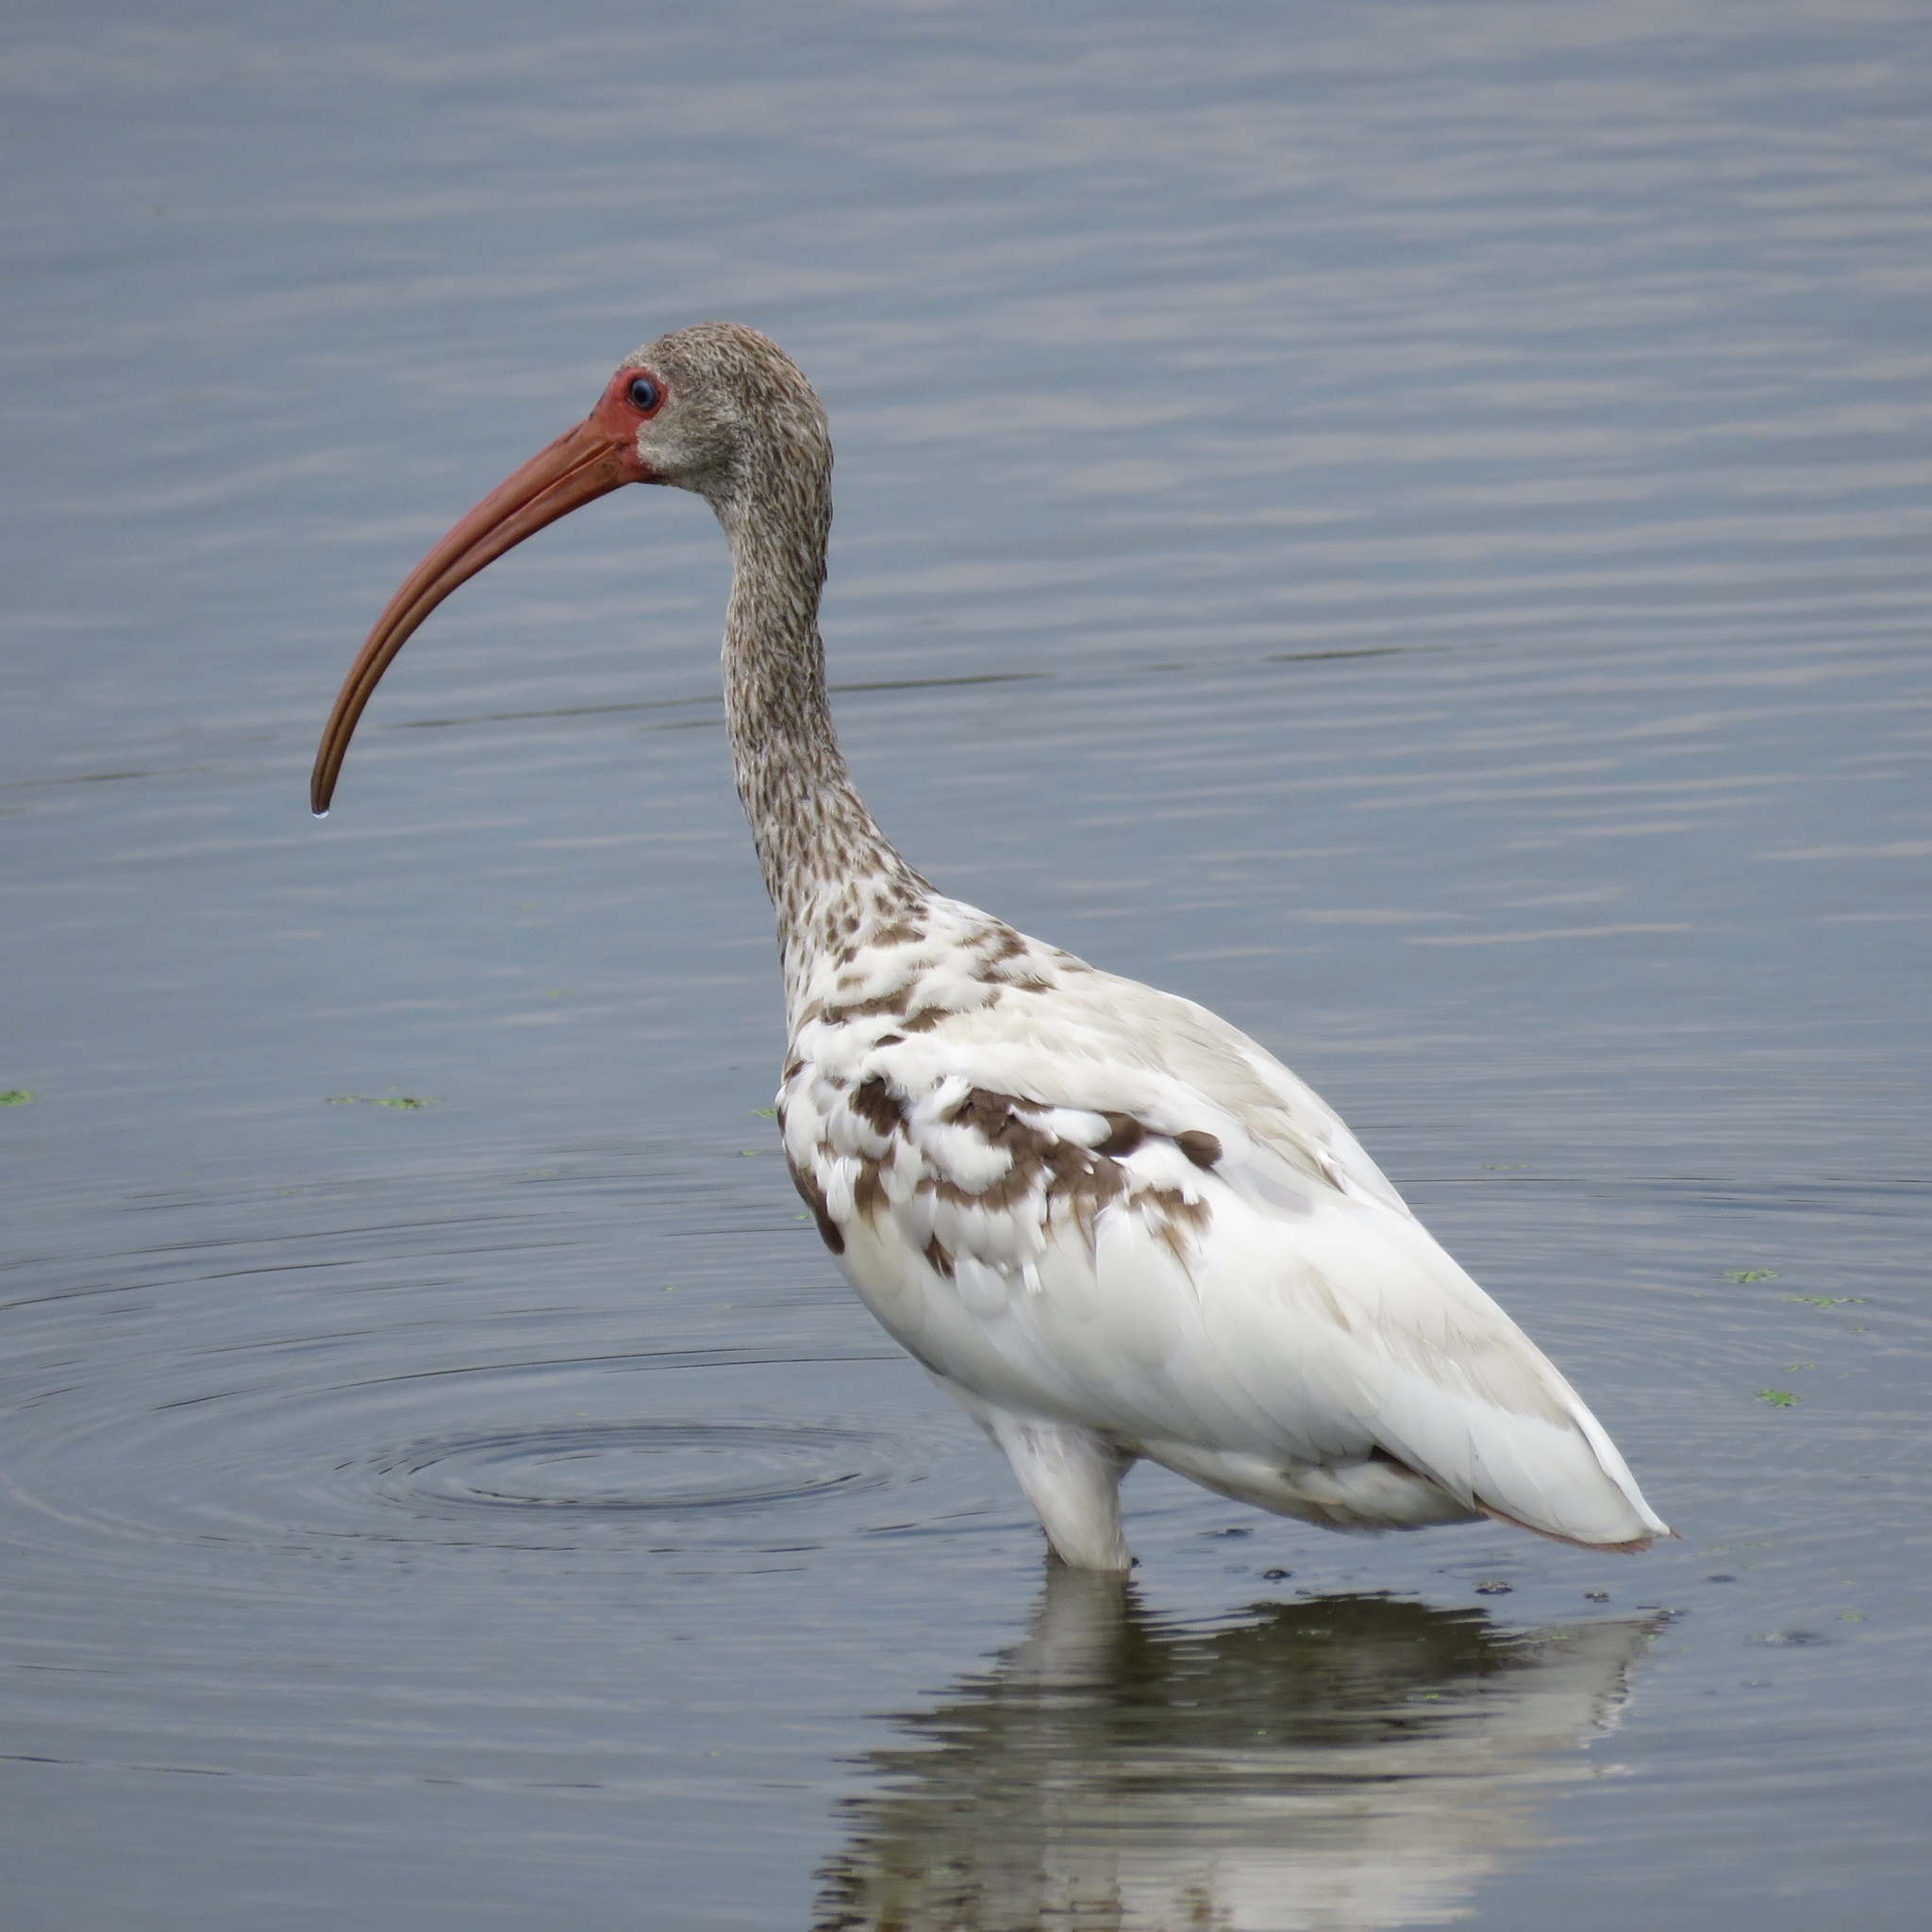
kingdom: Animalia
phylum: Chordata
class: Aves
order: Pelecaniformes
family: Threskiornithidae
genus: Eudocimus
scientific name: Eudocimus albus
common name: White ibis
